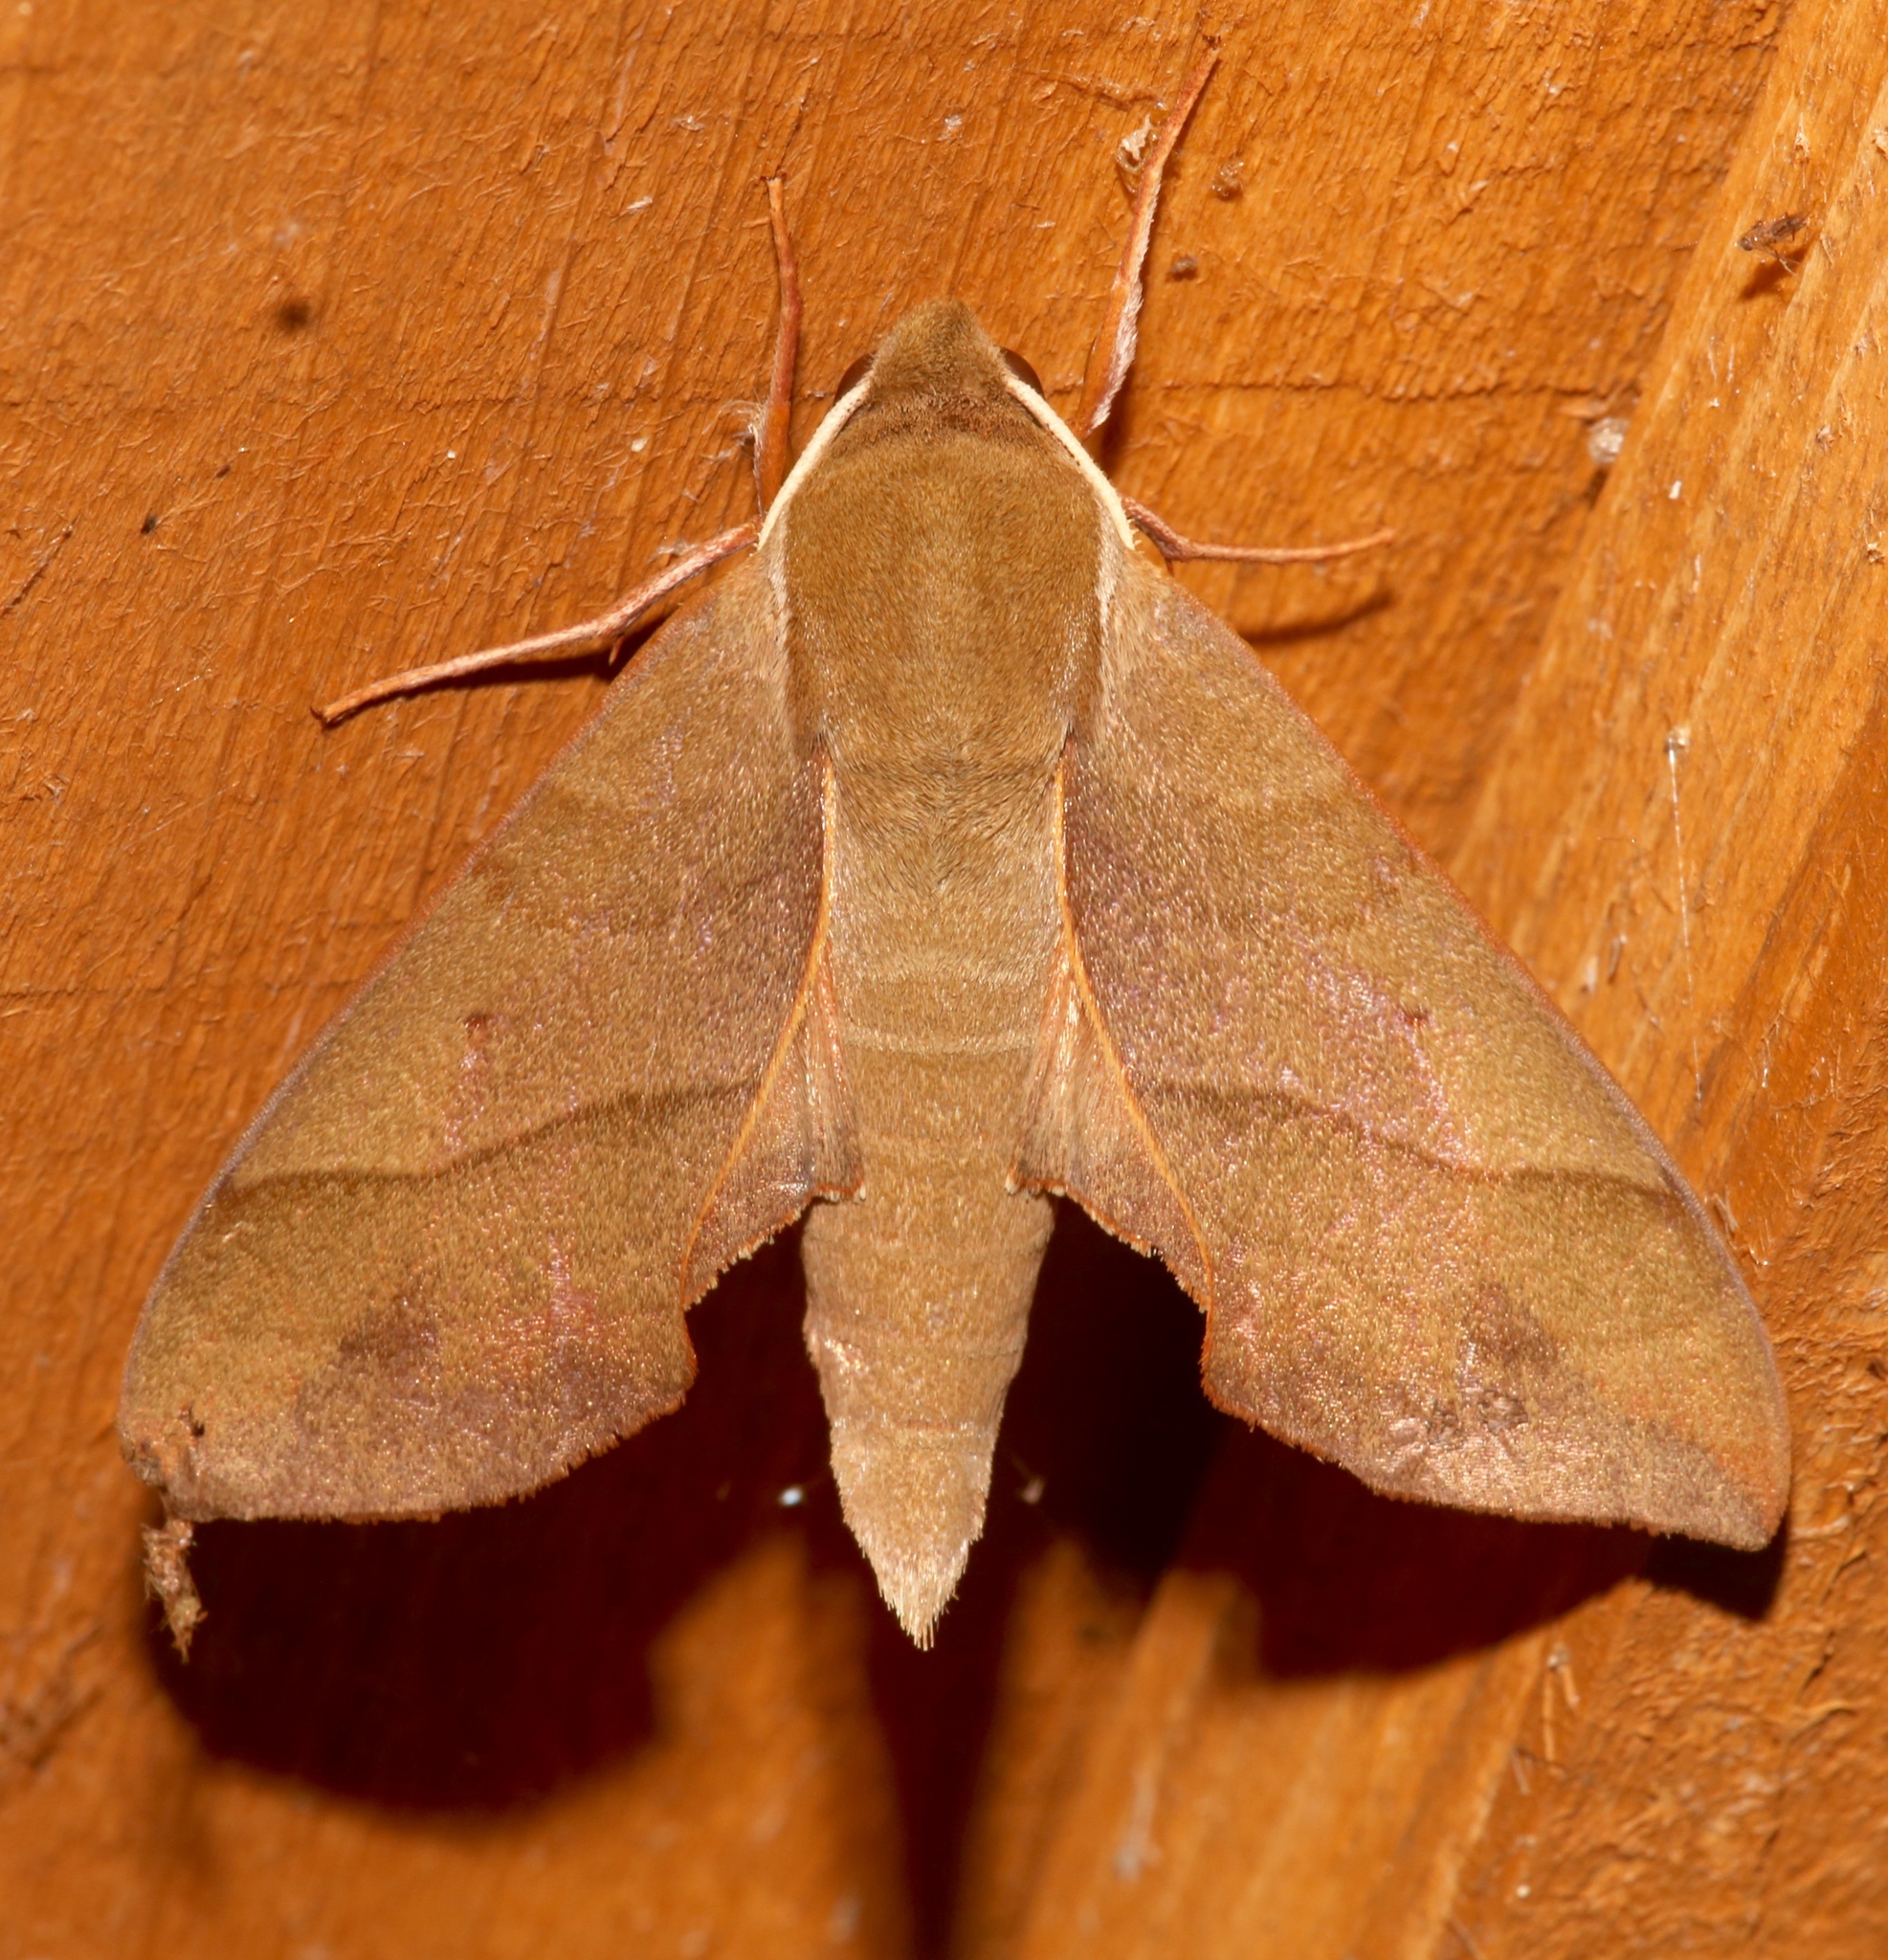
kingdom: Animalia
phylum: Arthropoda
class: Insecta
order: Lepidoptera
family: Sphingidae
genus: Darapsa
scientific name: Darapsa myron
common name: Hog sphinx
